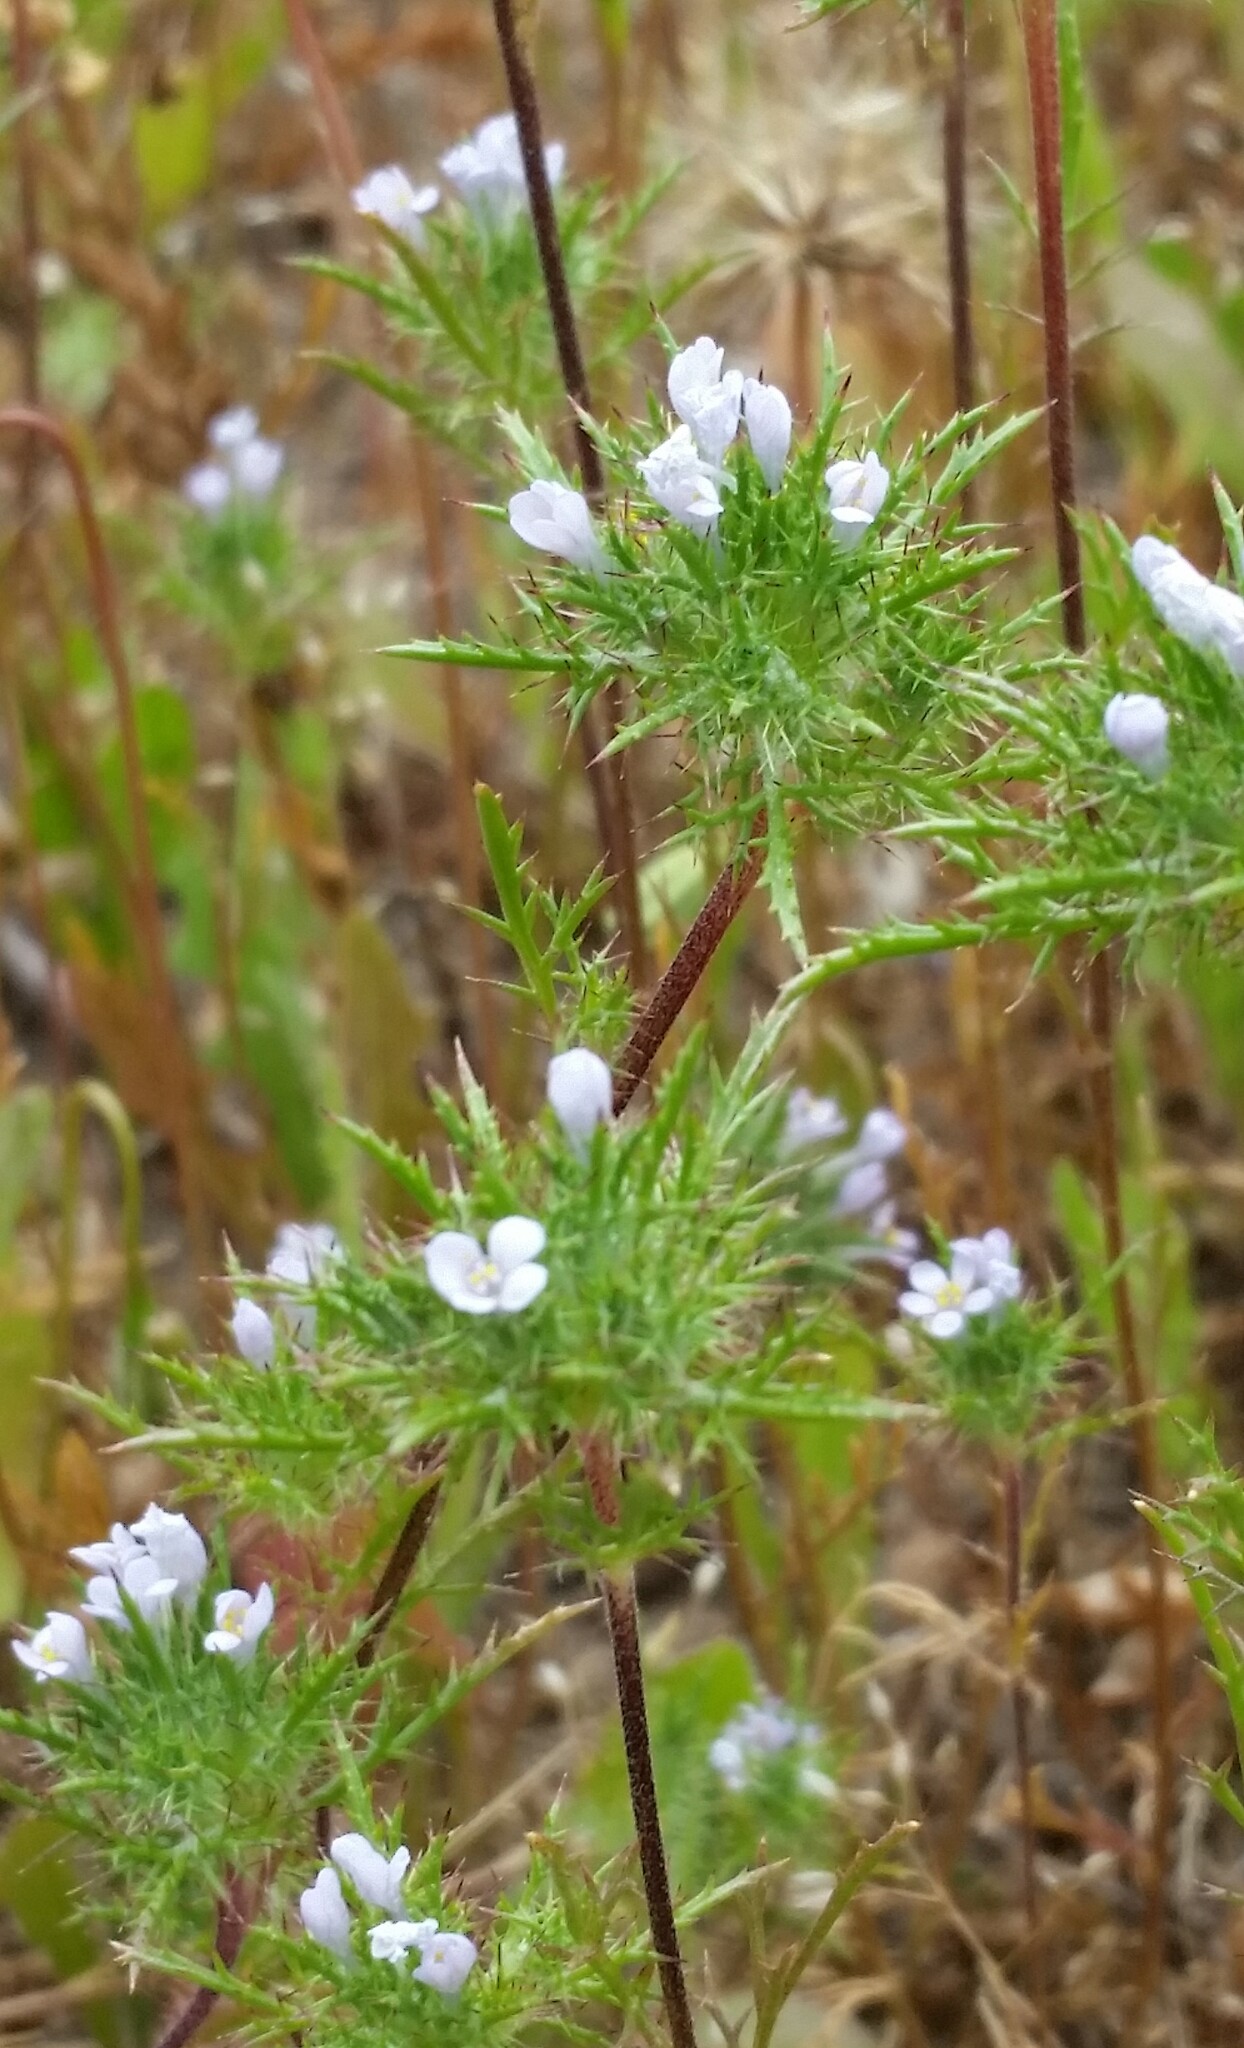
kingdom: Plantae
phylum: Tracheophyta
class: Magnoliopsida
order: Ericales
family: Polemoniaceae
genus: Navarretia
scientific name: Navarretia tagetina
